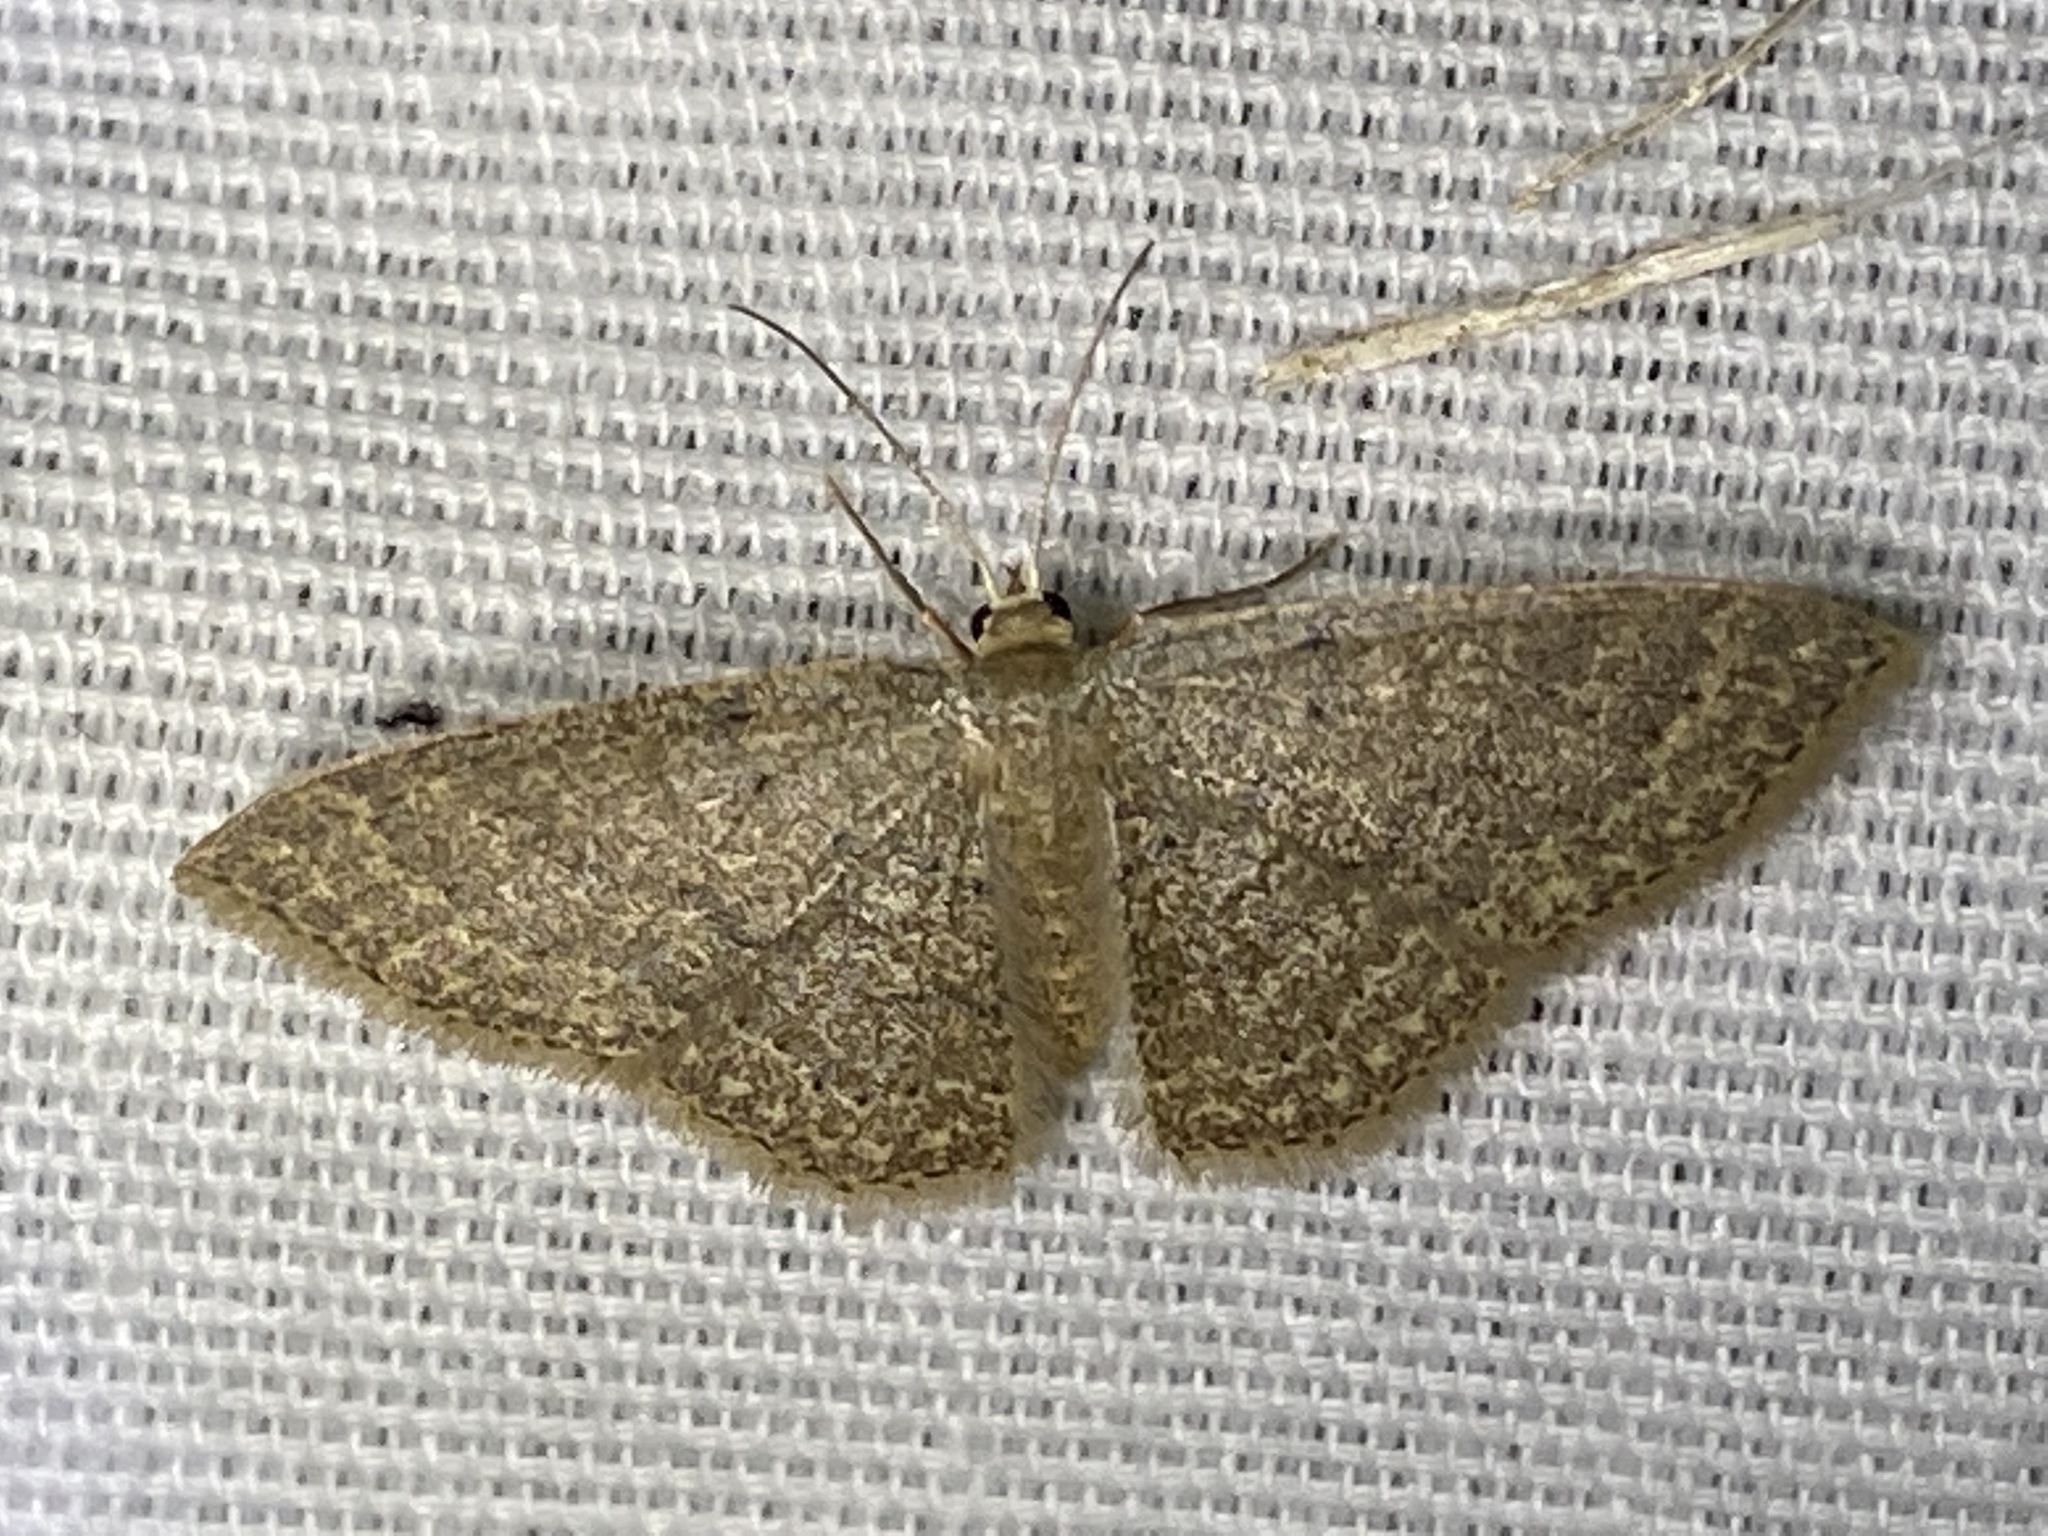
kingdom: Animalia
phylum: Arthropoda
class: Insecta
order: Lepidoptera
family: Geometridae
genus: Pleuroprucha
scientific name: Pleuroprucha insulsaria
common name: Common tan wave
